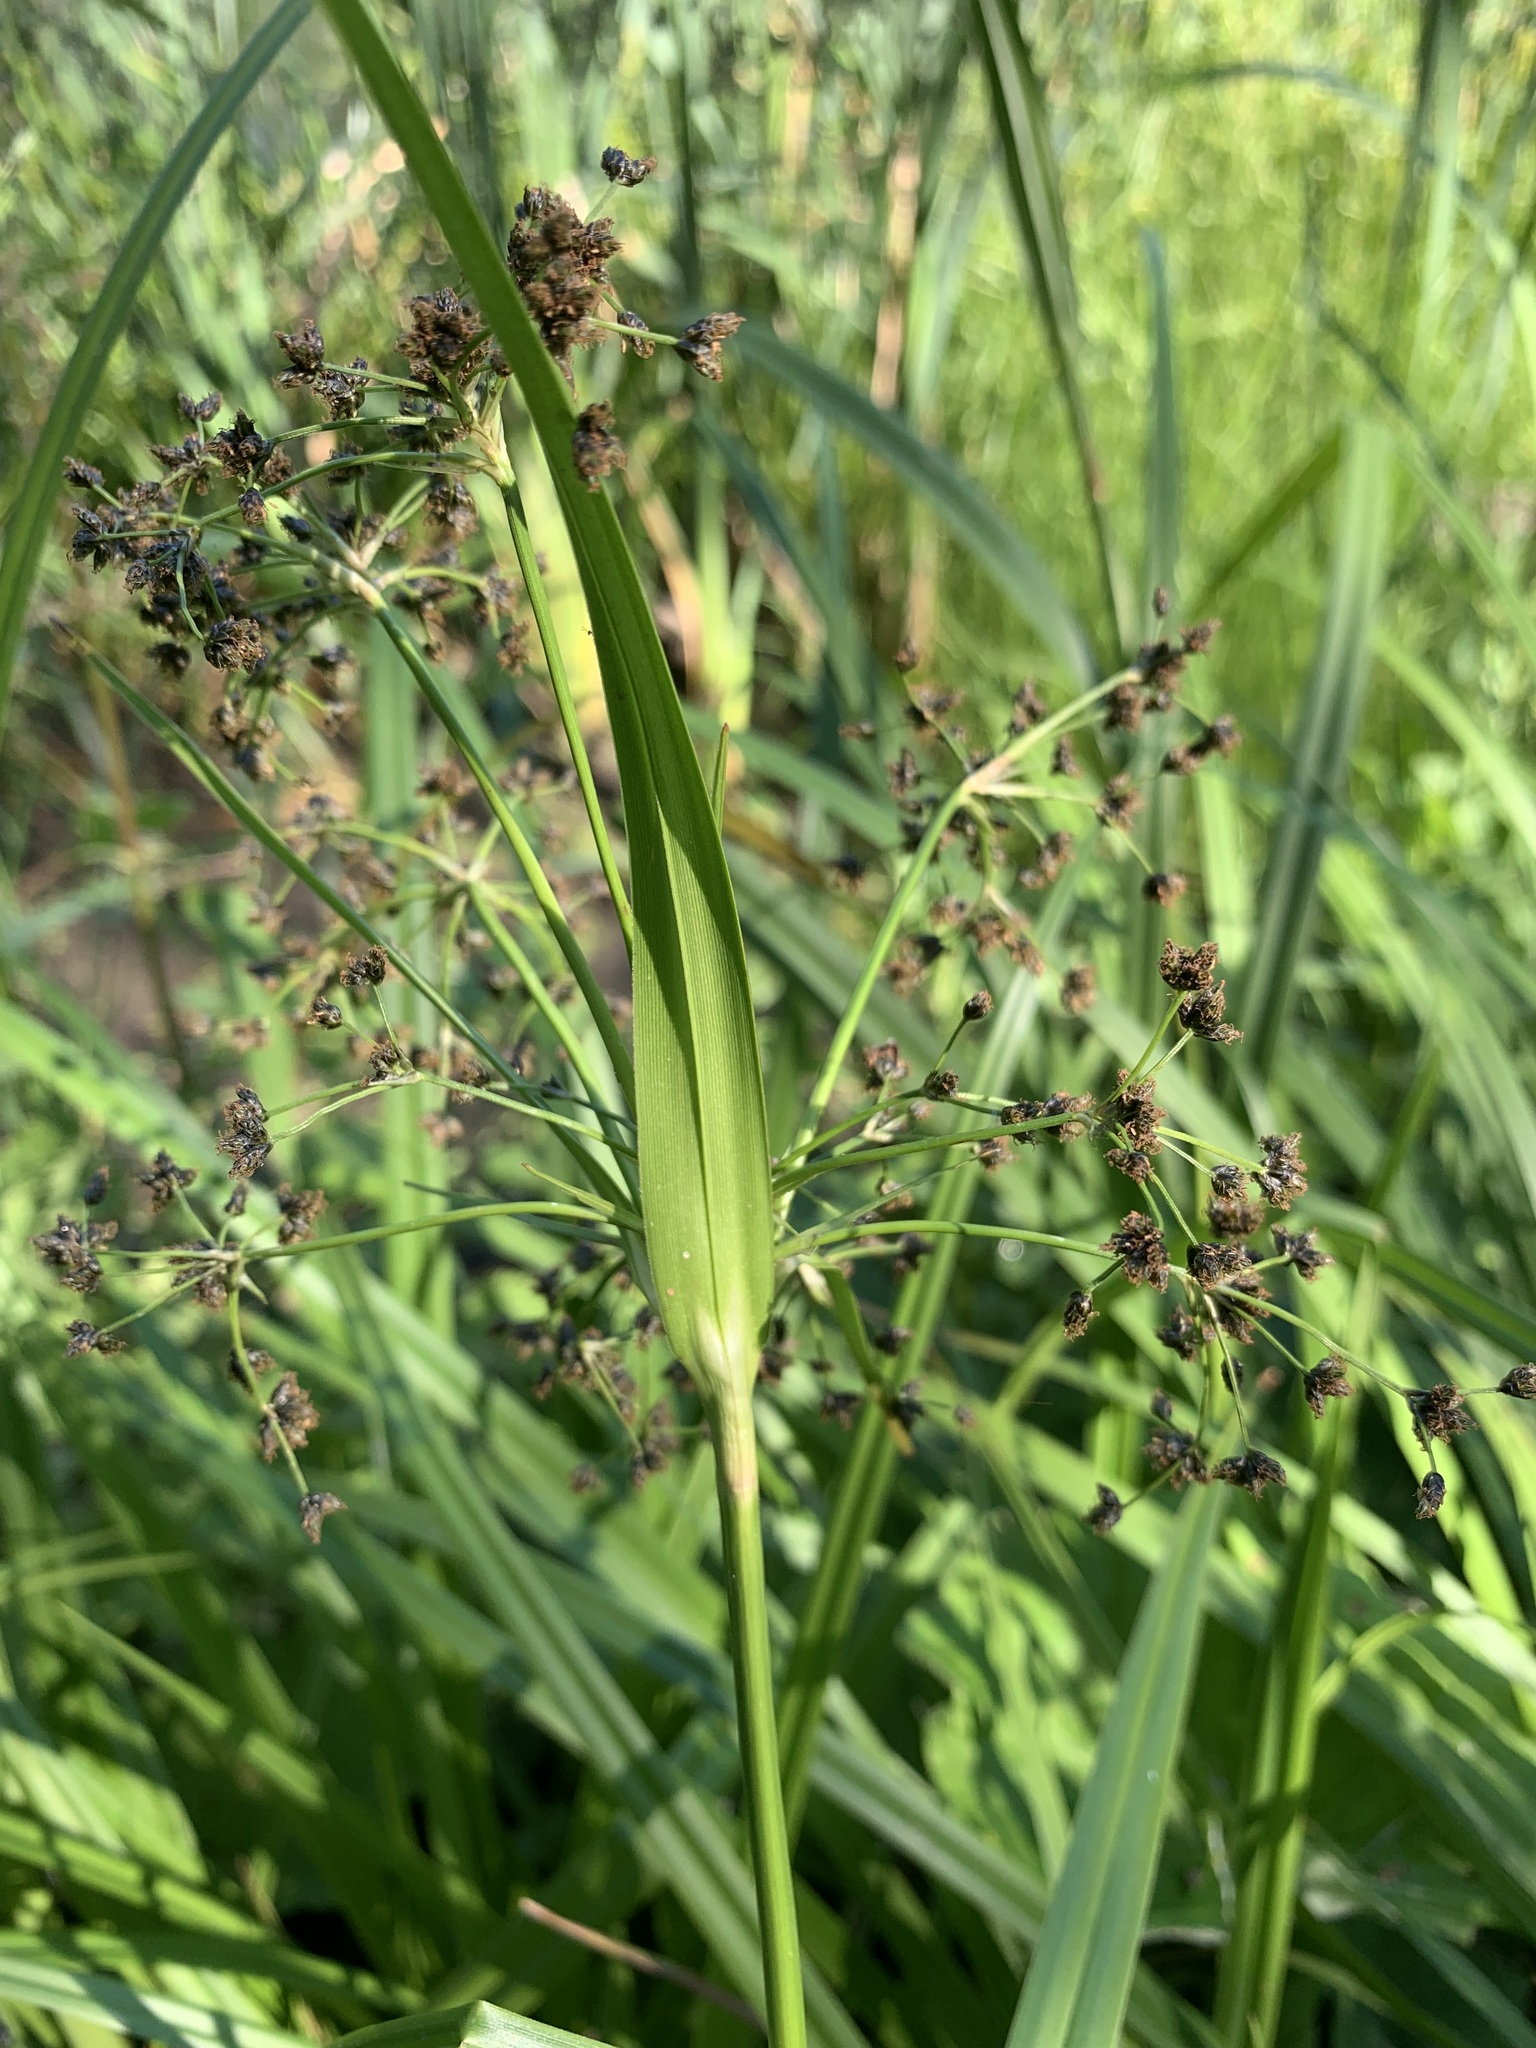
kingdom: Plantae
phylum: Tracheophyta
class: Liliopsida
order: Poales
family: Cyperaceae
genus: Scirpus
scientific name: Scirpus sylvaticus
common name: Wood club-rush
